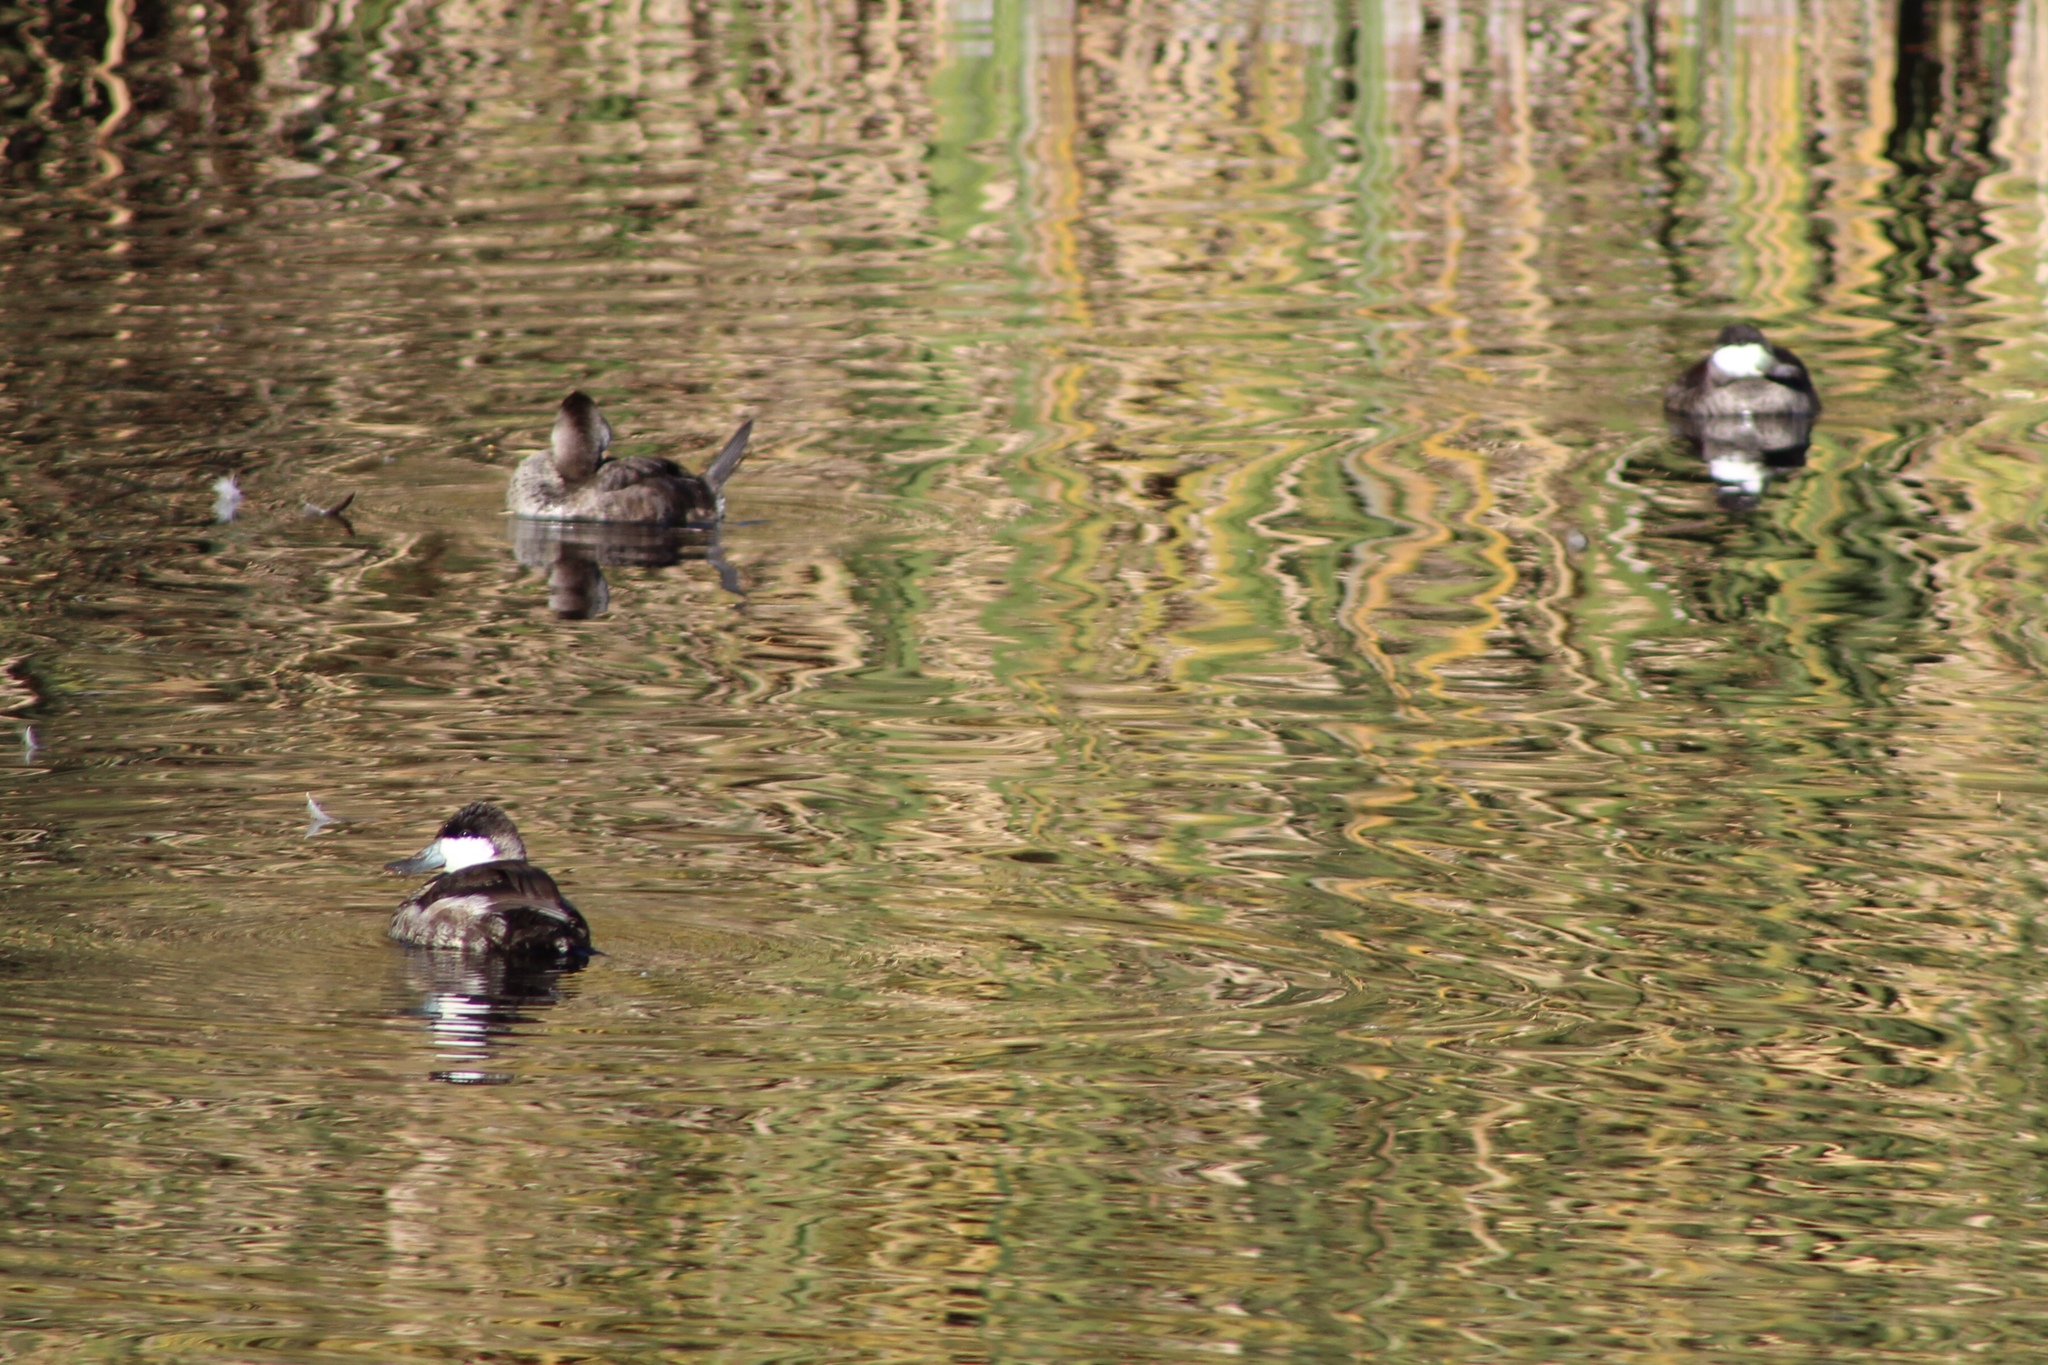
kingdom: Animalia
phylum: Chordata
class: Aves
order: Anseriformes
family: Anatidae
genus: Oxyura
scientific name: Oxyura jamaicensis
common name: Ruddy duck
